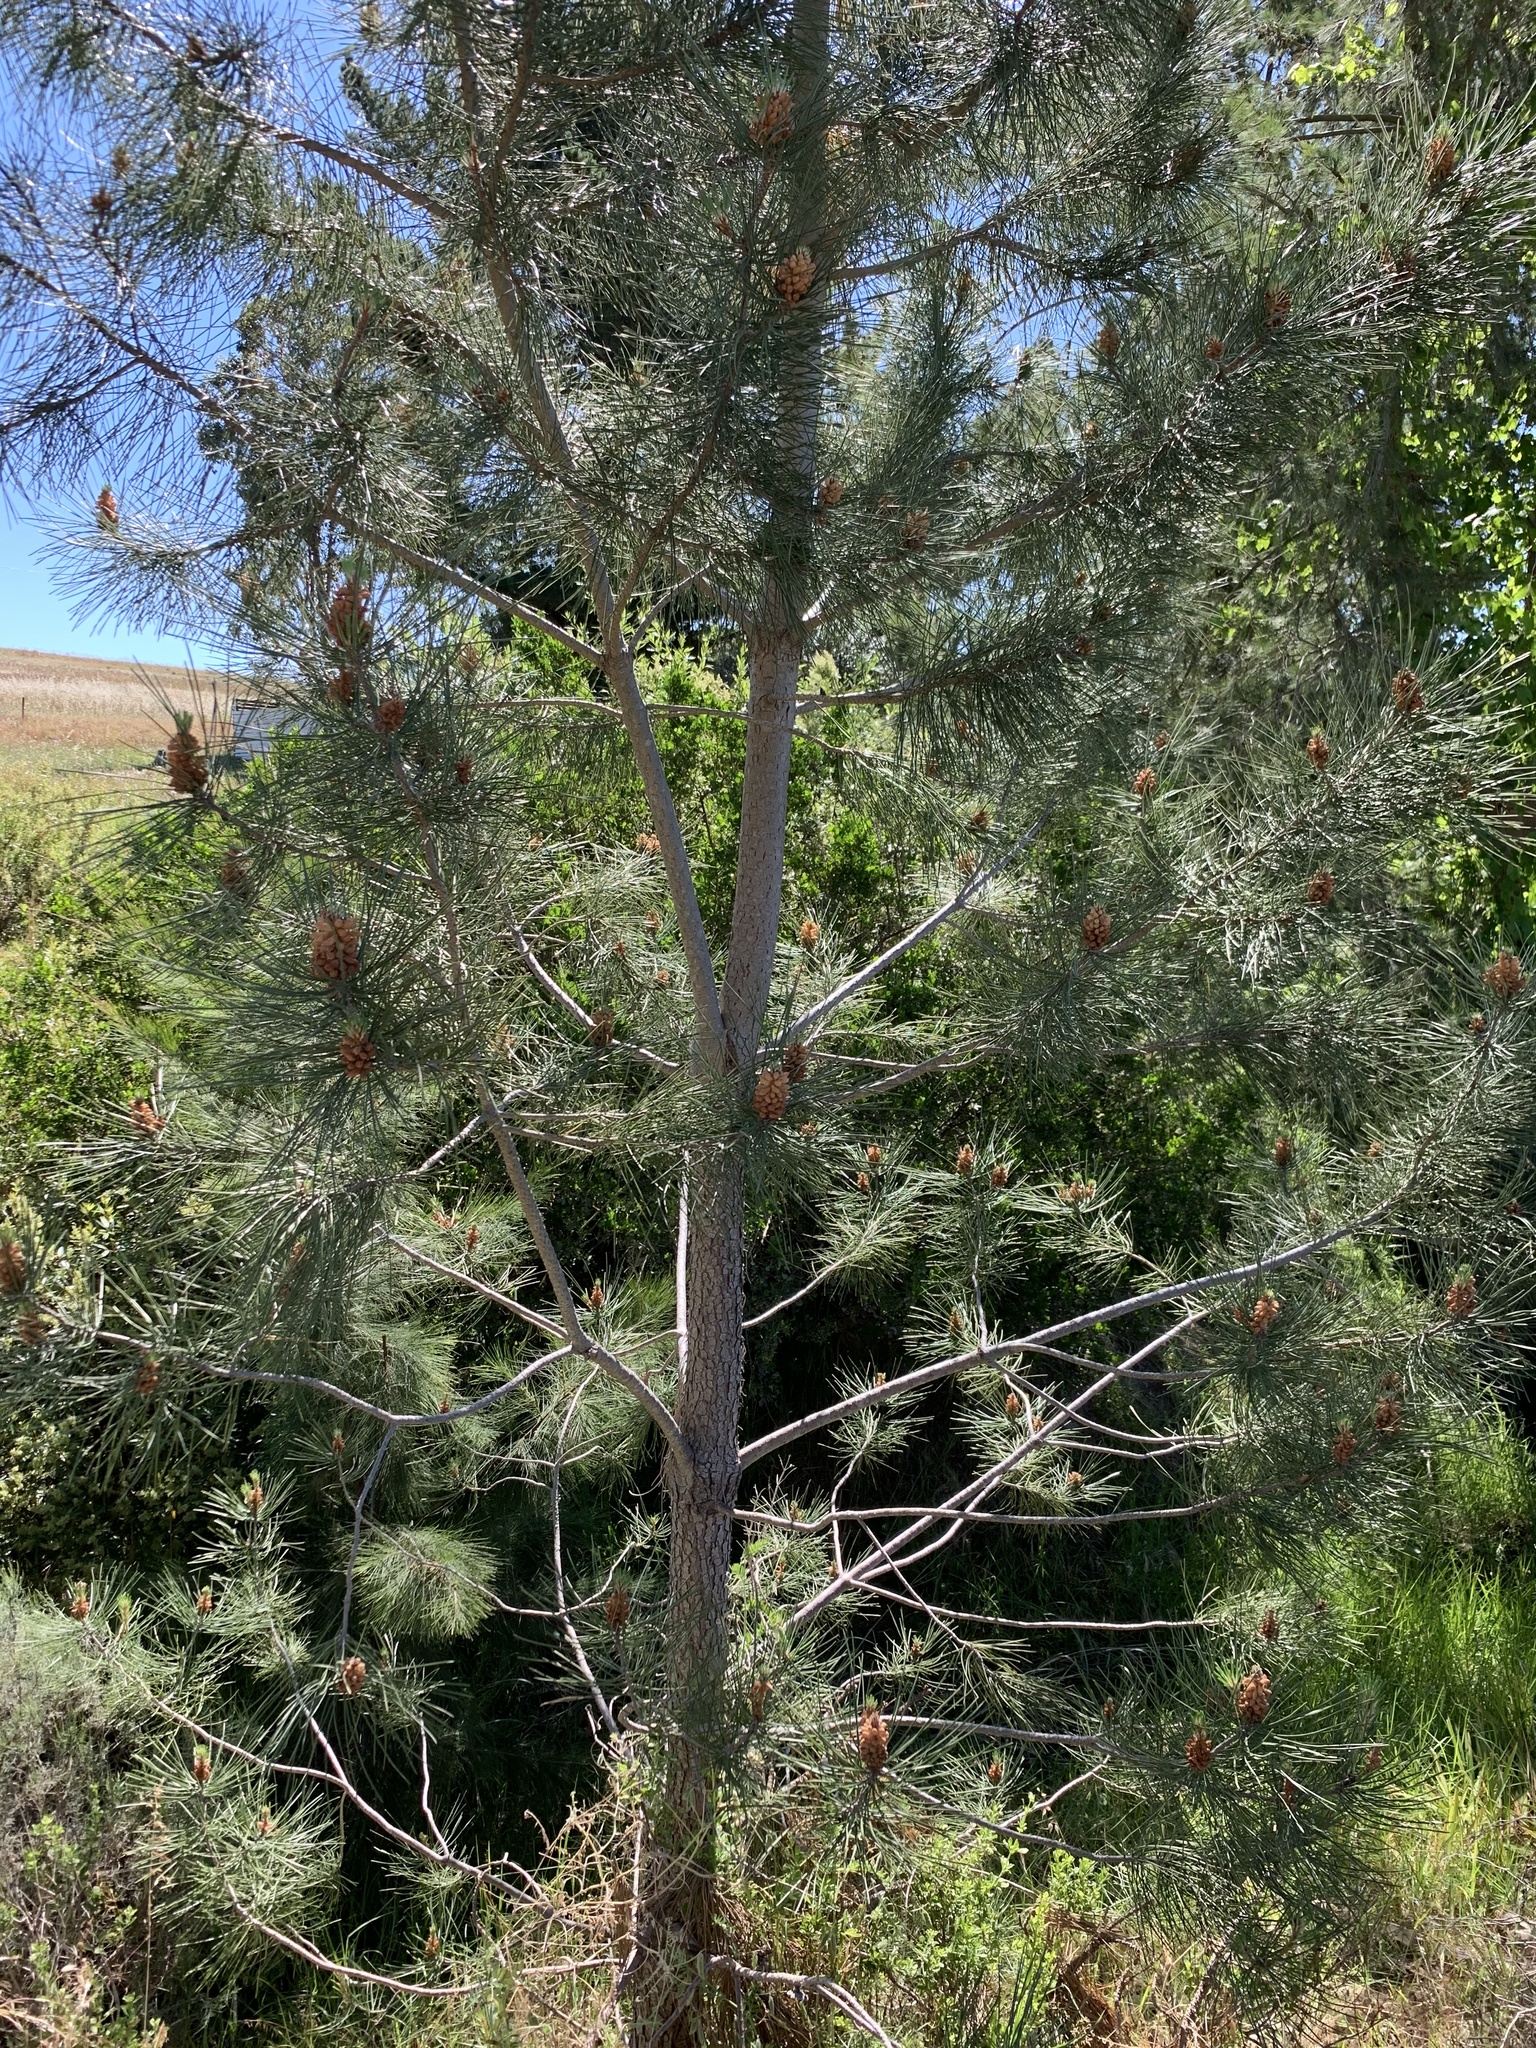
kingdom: Plantae
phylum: Tracheophyta
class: Pinopsida
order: Pinales
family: Pinaceae
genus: Pinus
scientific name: Pinus pinaster
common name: Maritime pine
